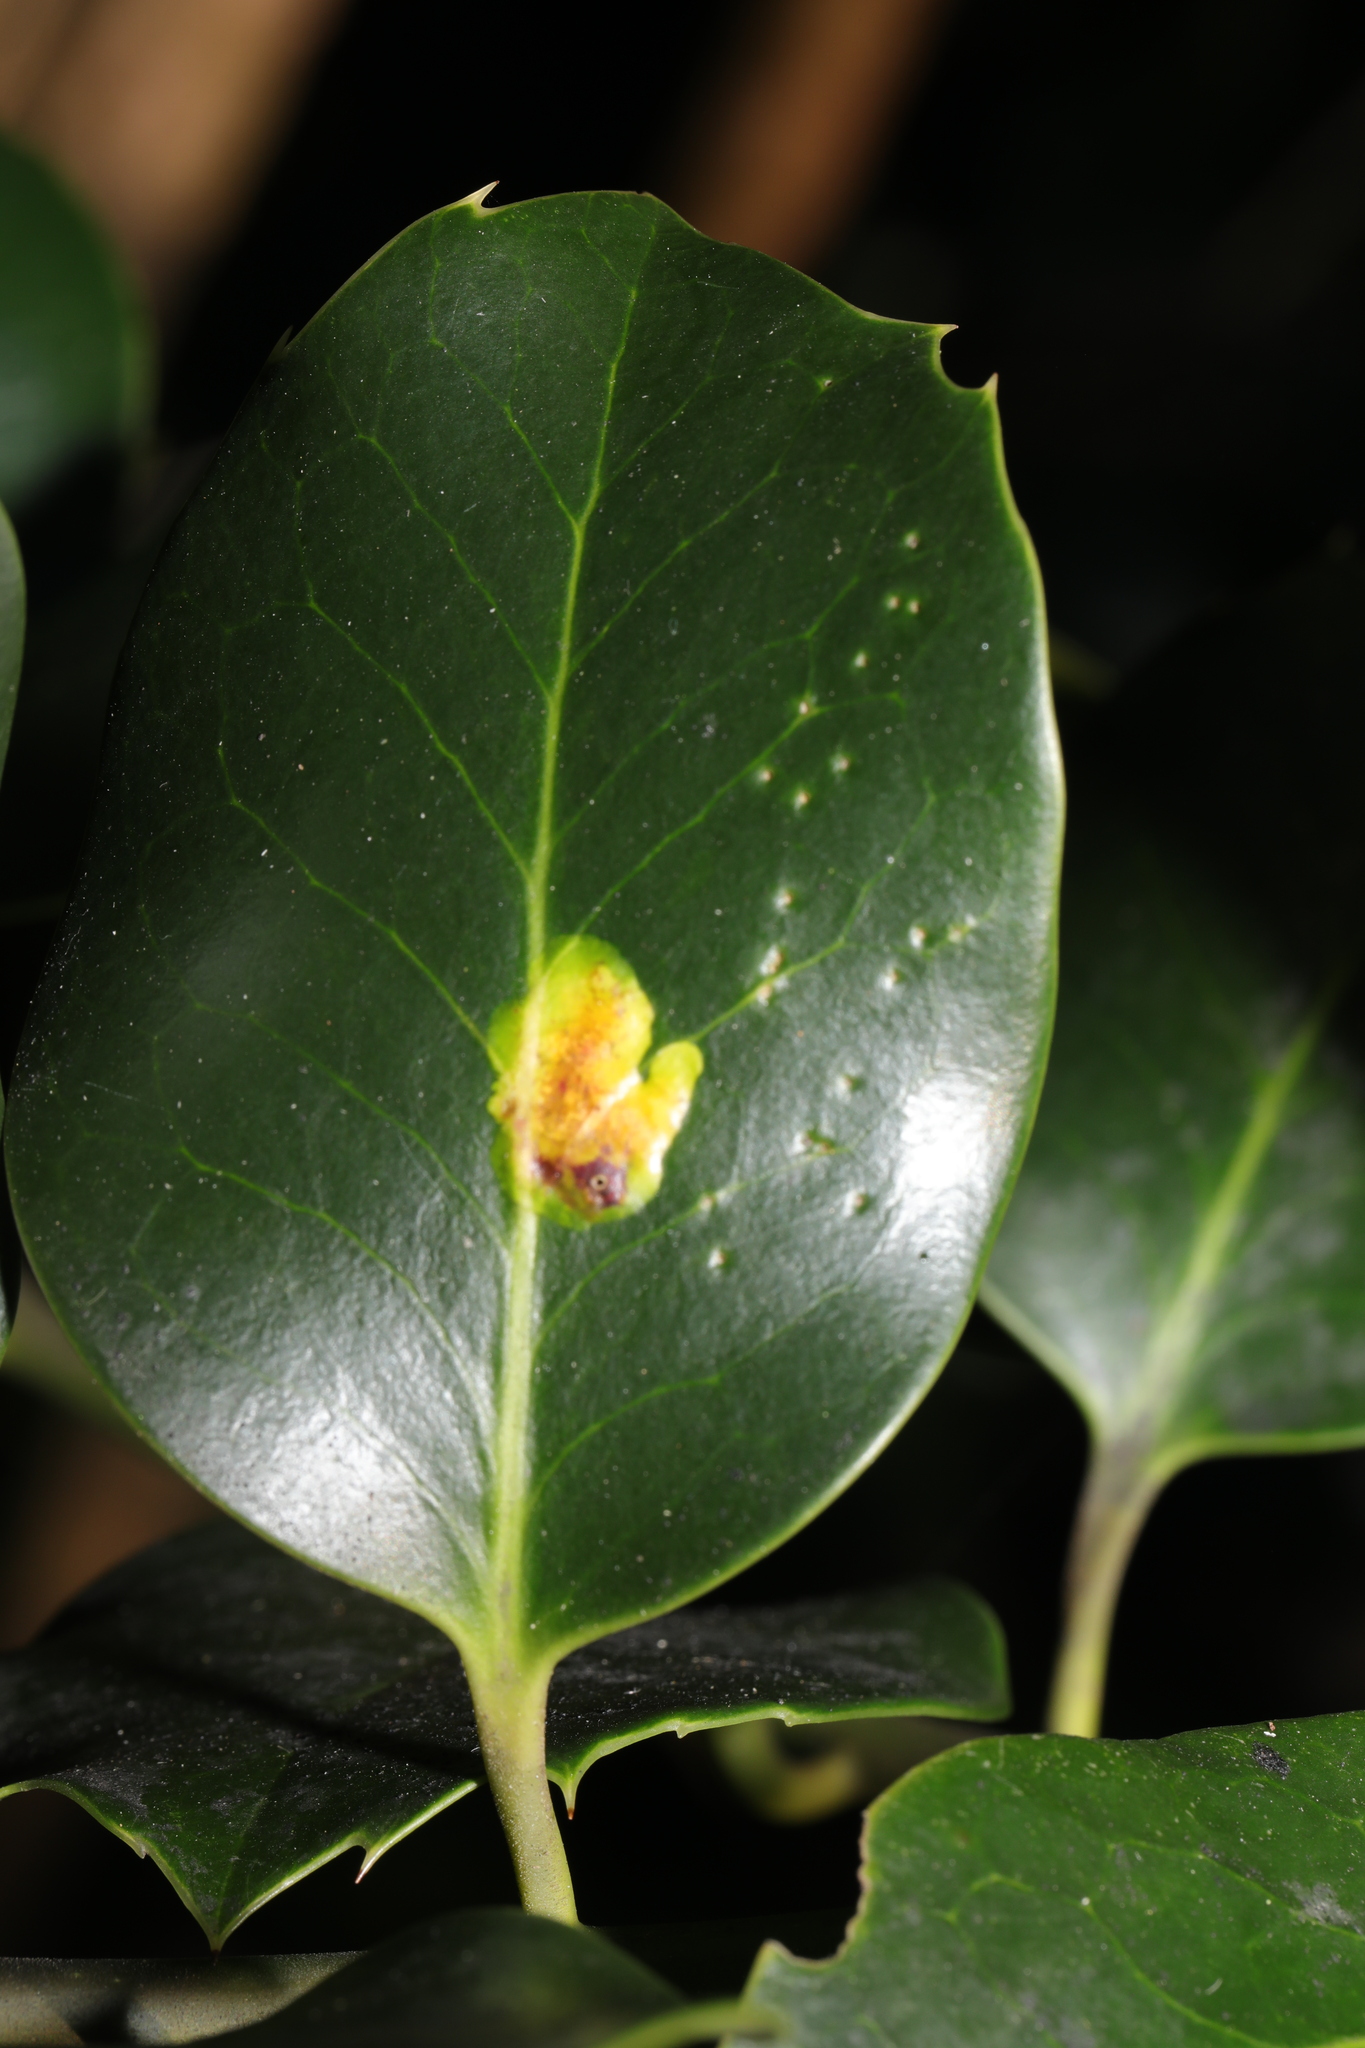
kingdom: Animalia
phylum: Arthropoda
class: Insecta
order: Diptera
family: Agromyzidae
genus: Phytomyza
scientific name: Phytomyza ilicis
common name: Holly leafminer
